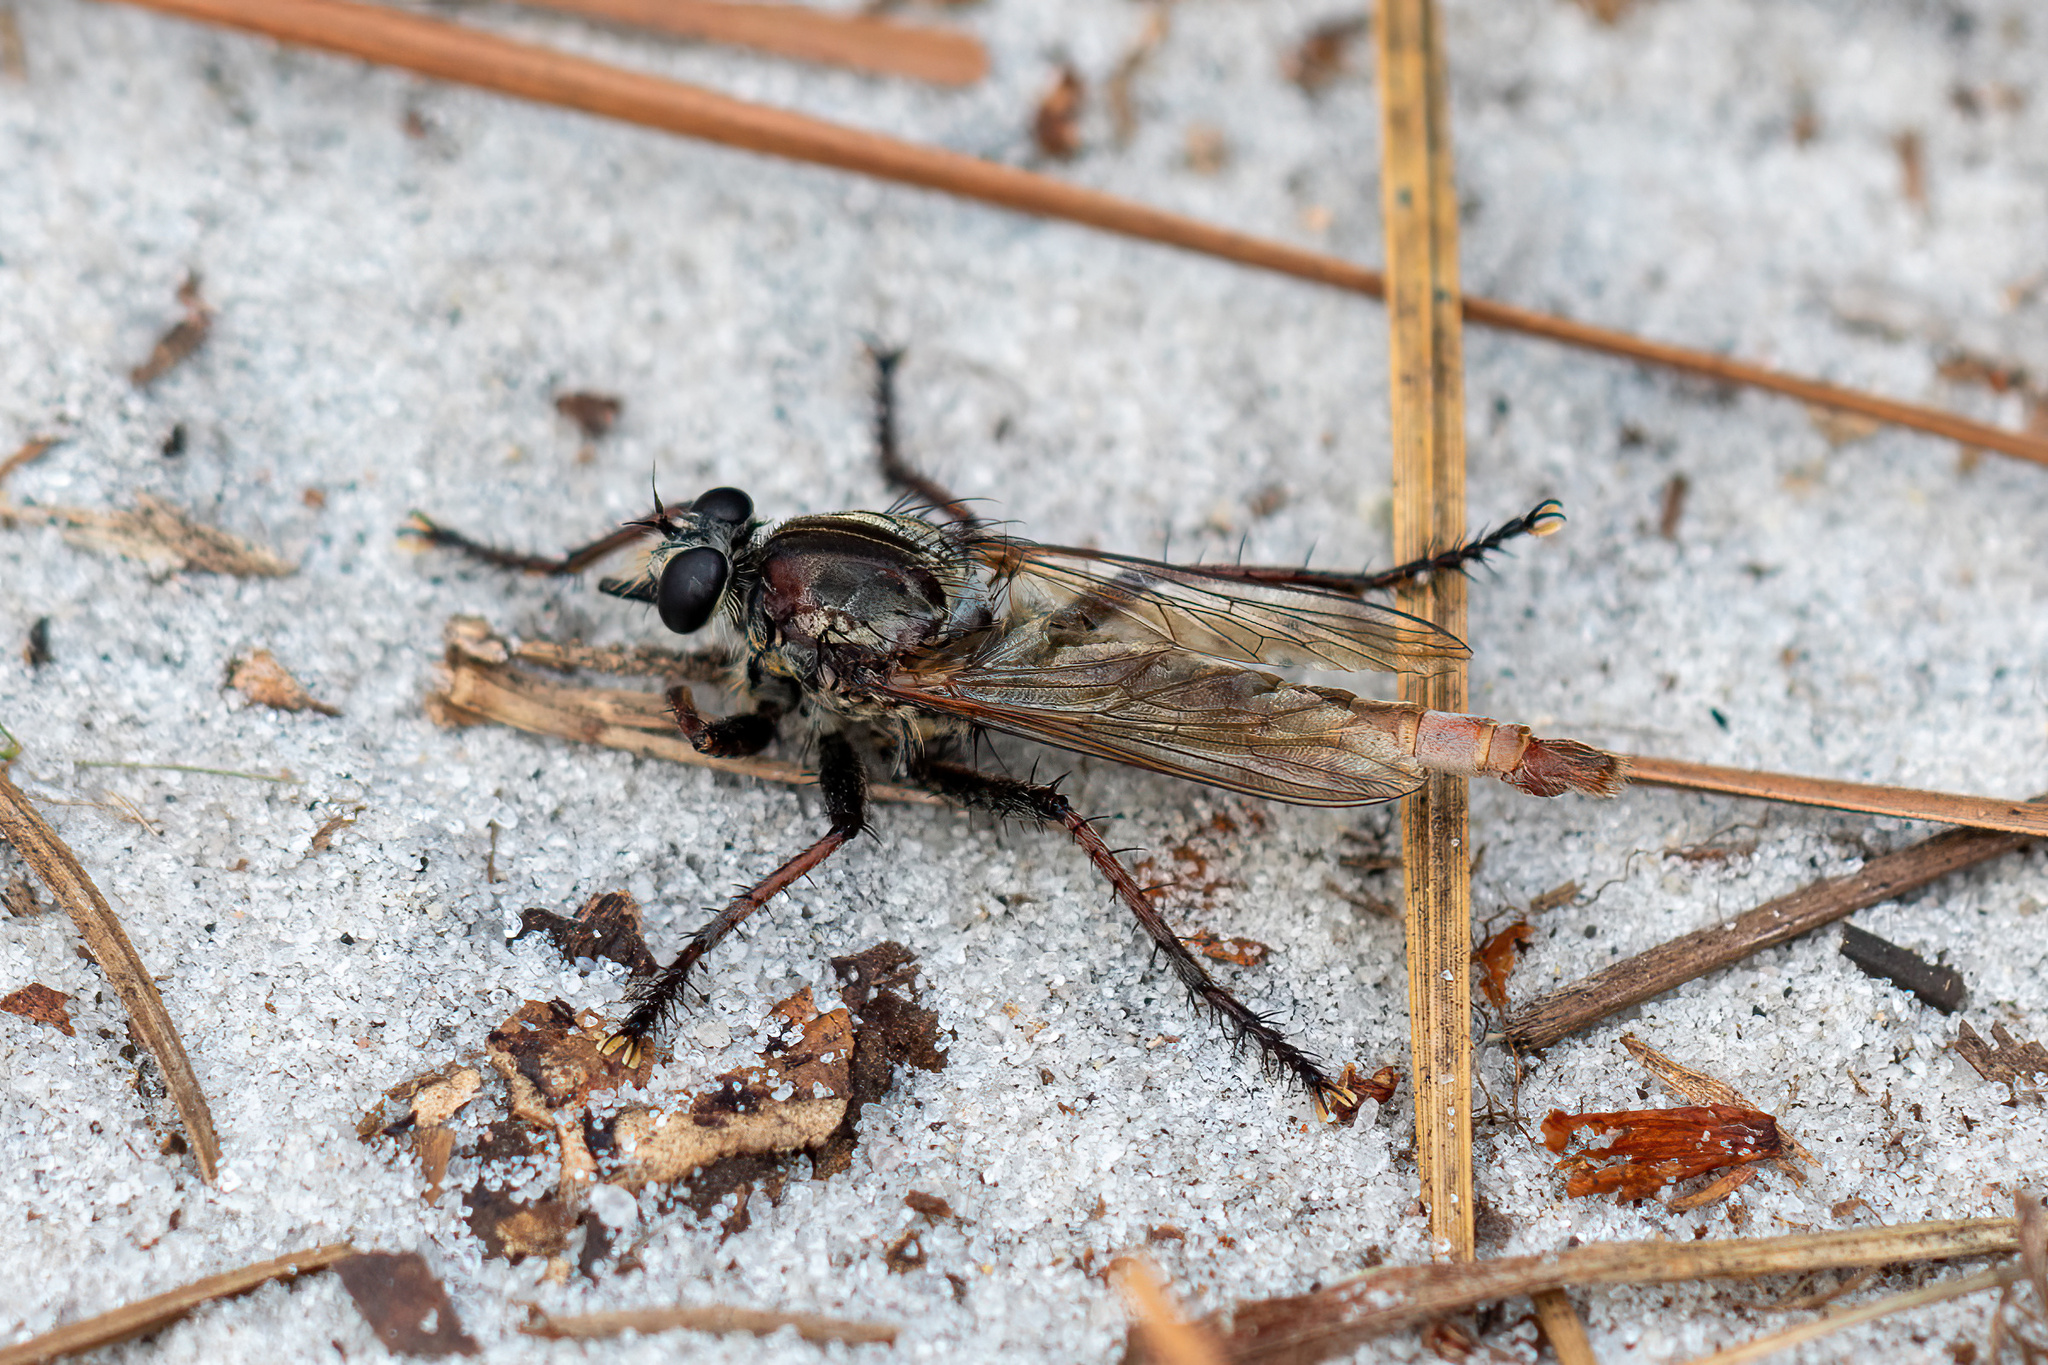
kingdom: Animalia
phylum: Arthropoda
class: Insecta
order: Diptera
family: Asilidae
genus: Proctacanthus
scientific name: Proctacanthus brevipennis
